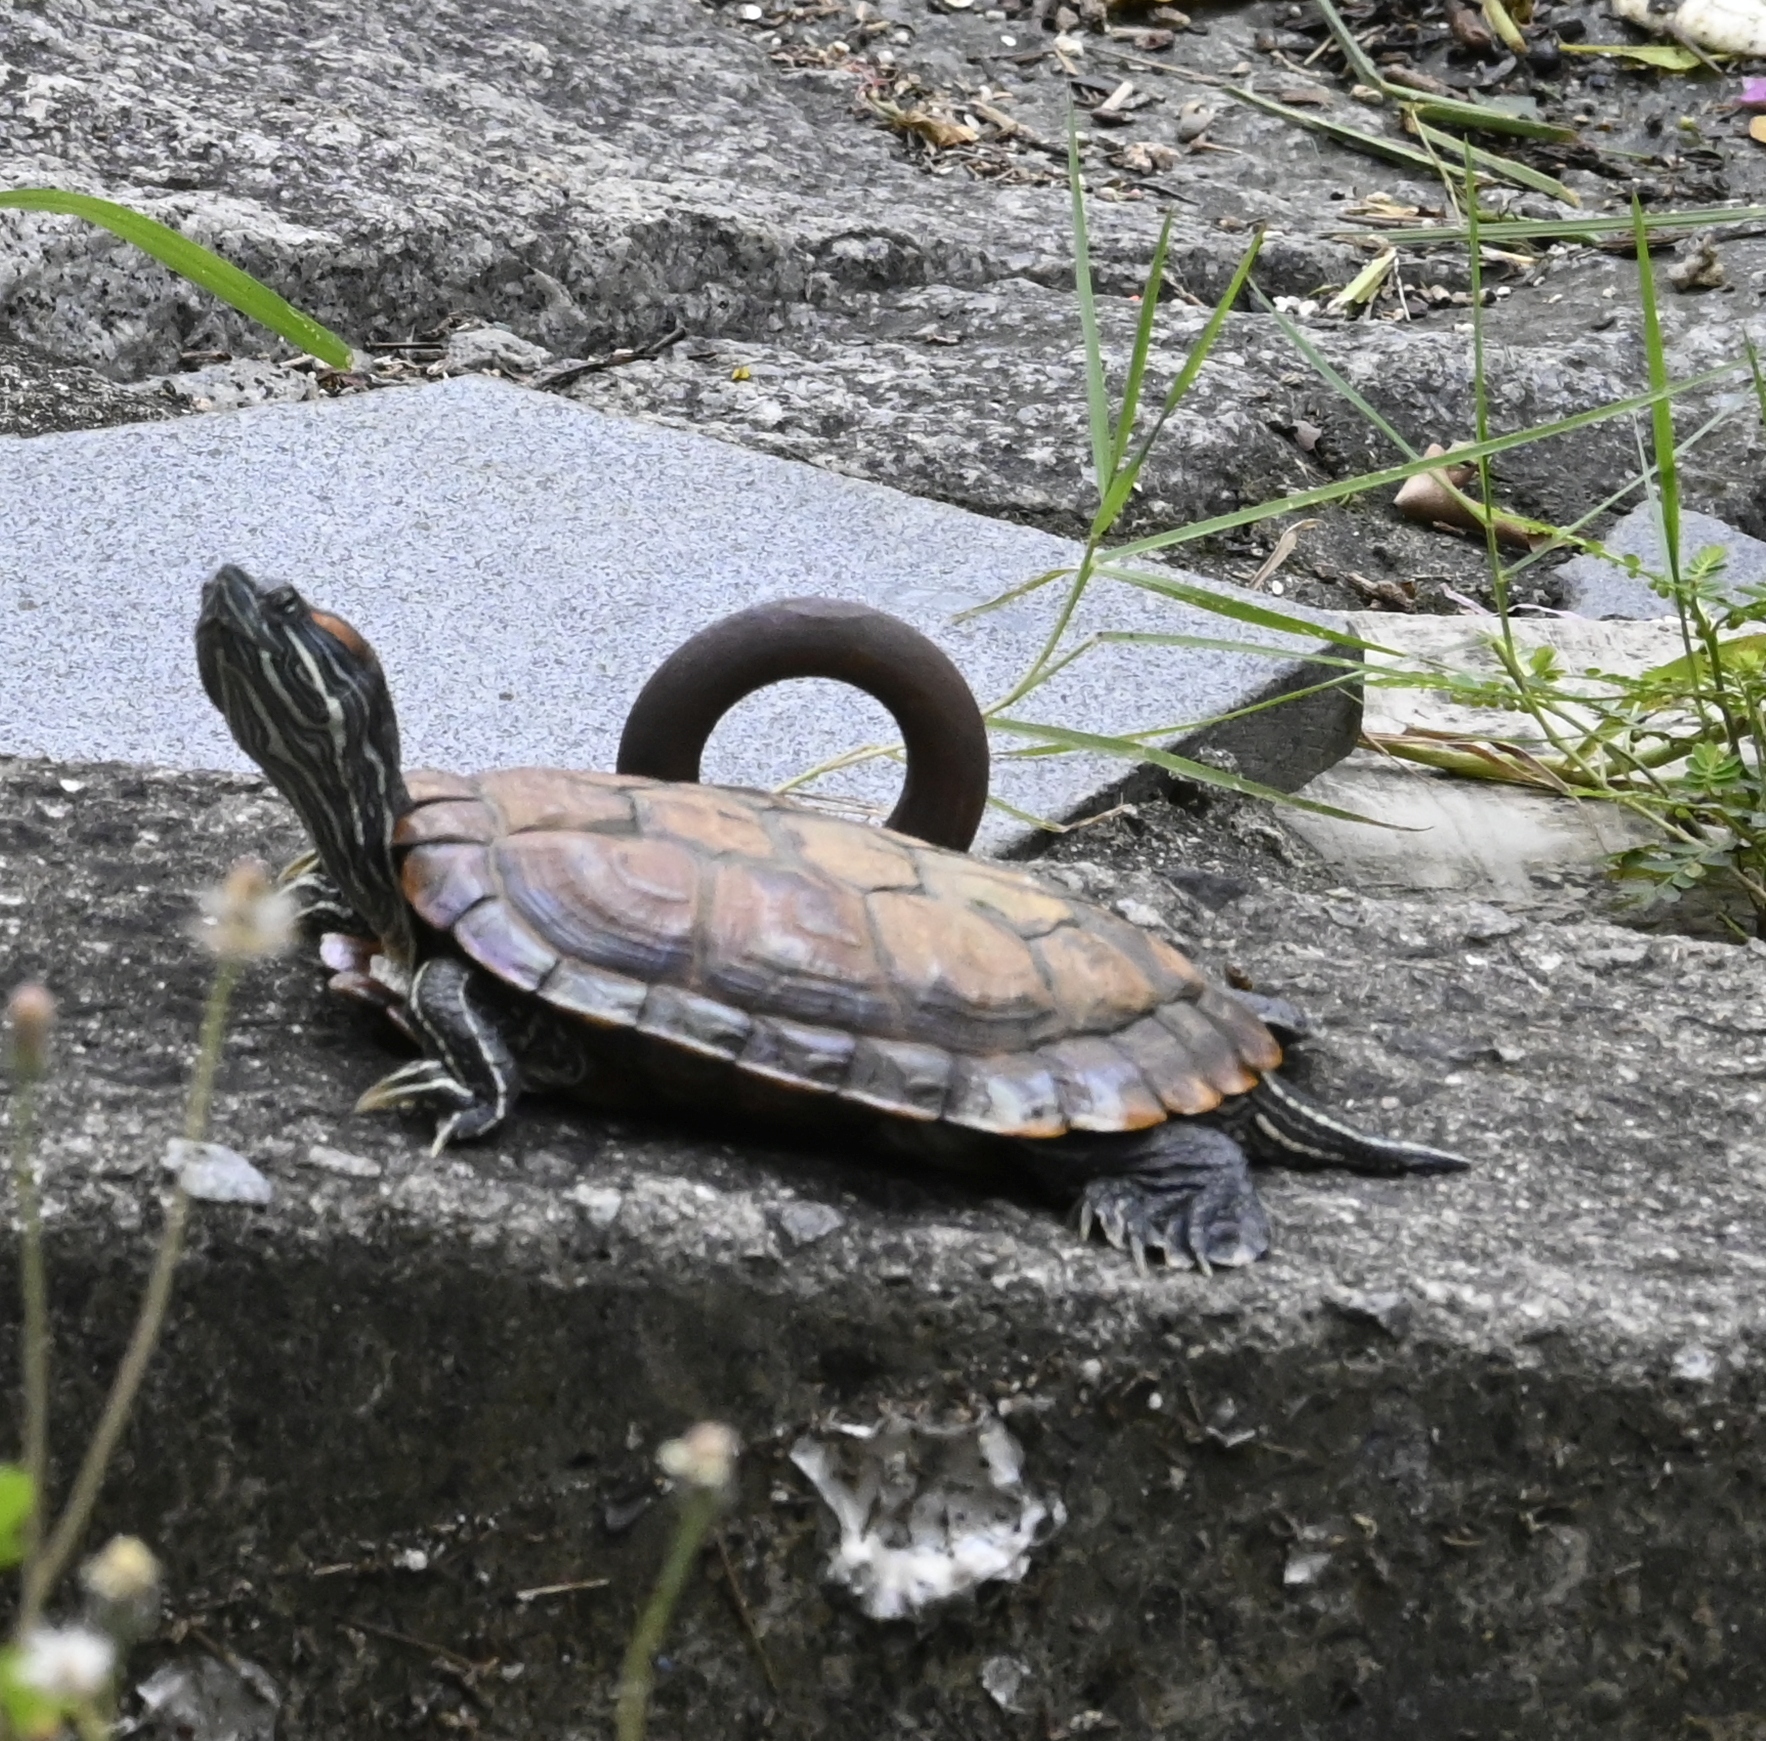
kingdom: Animalia
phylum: Chordata
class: Testudines
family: Emydidae
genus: Trachemys
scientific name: Trachemys scripta
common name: Slider
